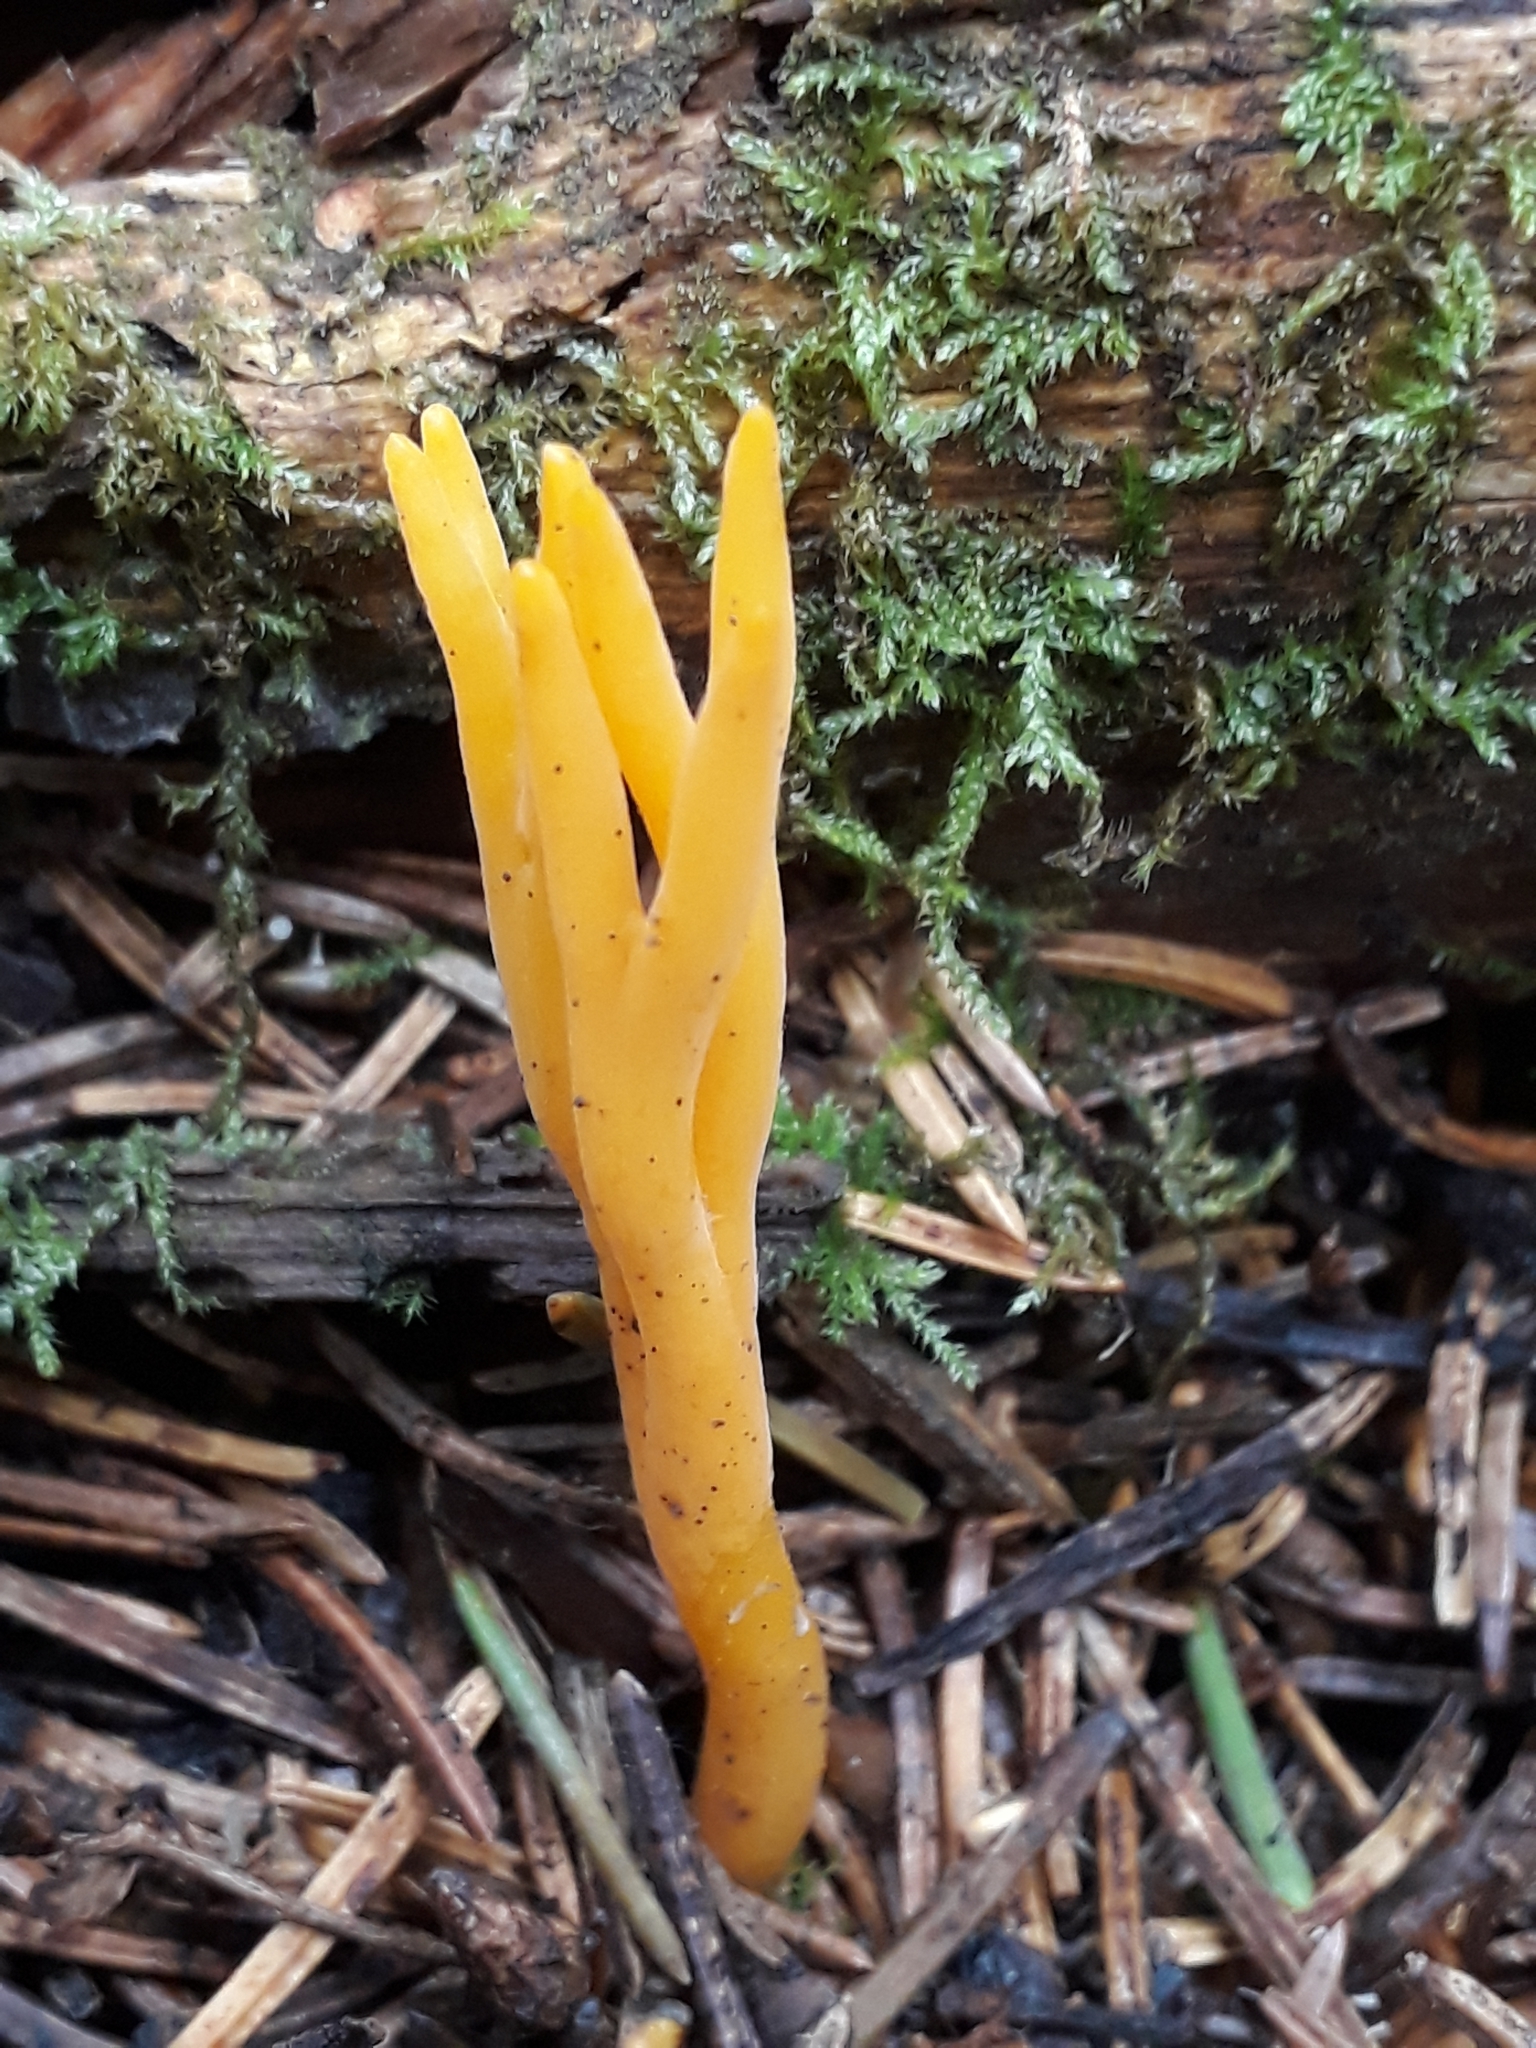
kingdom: Fungi
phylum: Basidiomycota
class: Dacrymycetes
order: Dacrymycetales
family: Dacrymycetaceae
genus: Calocera
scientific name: Calocera viscosa
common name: Yellow stagshorn
